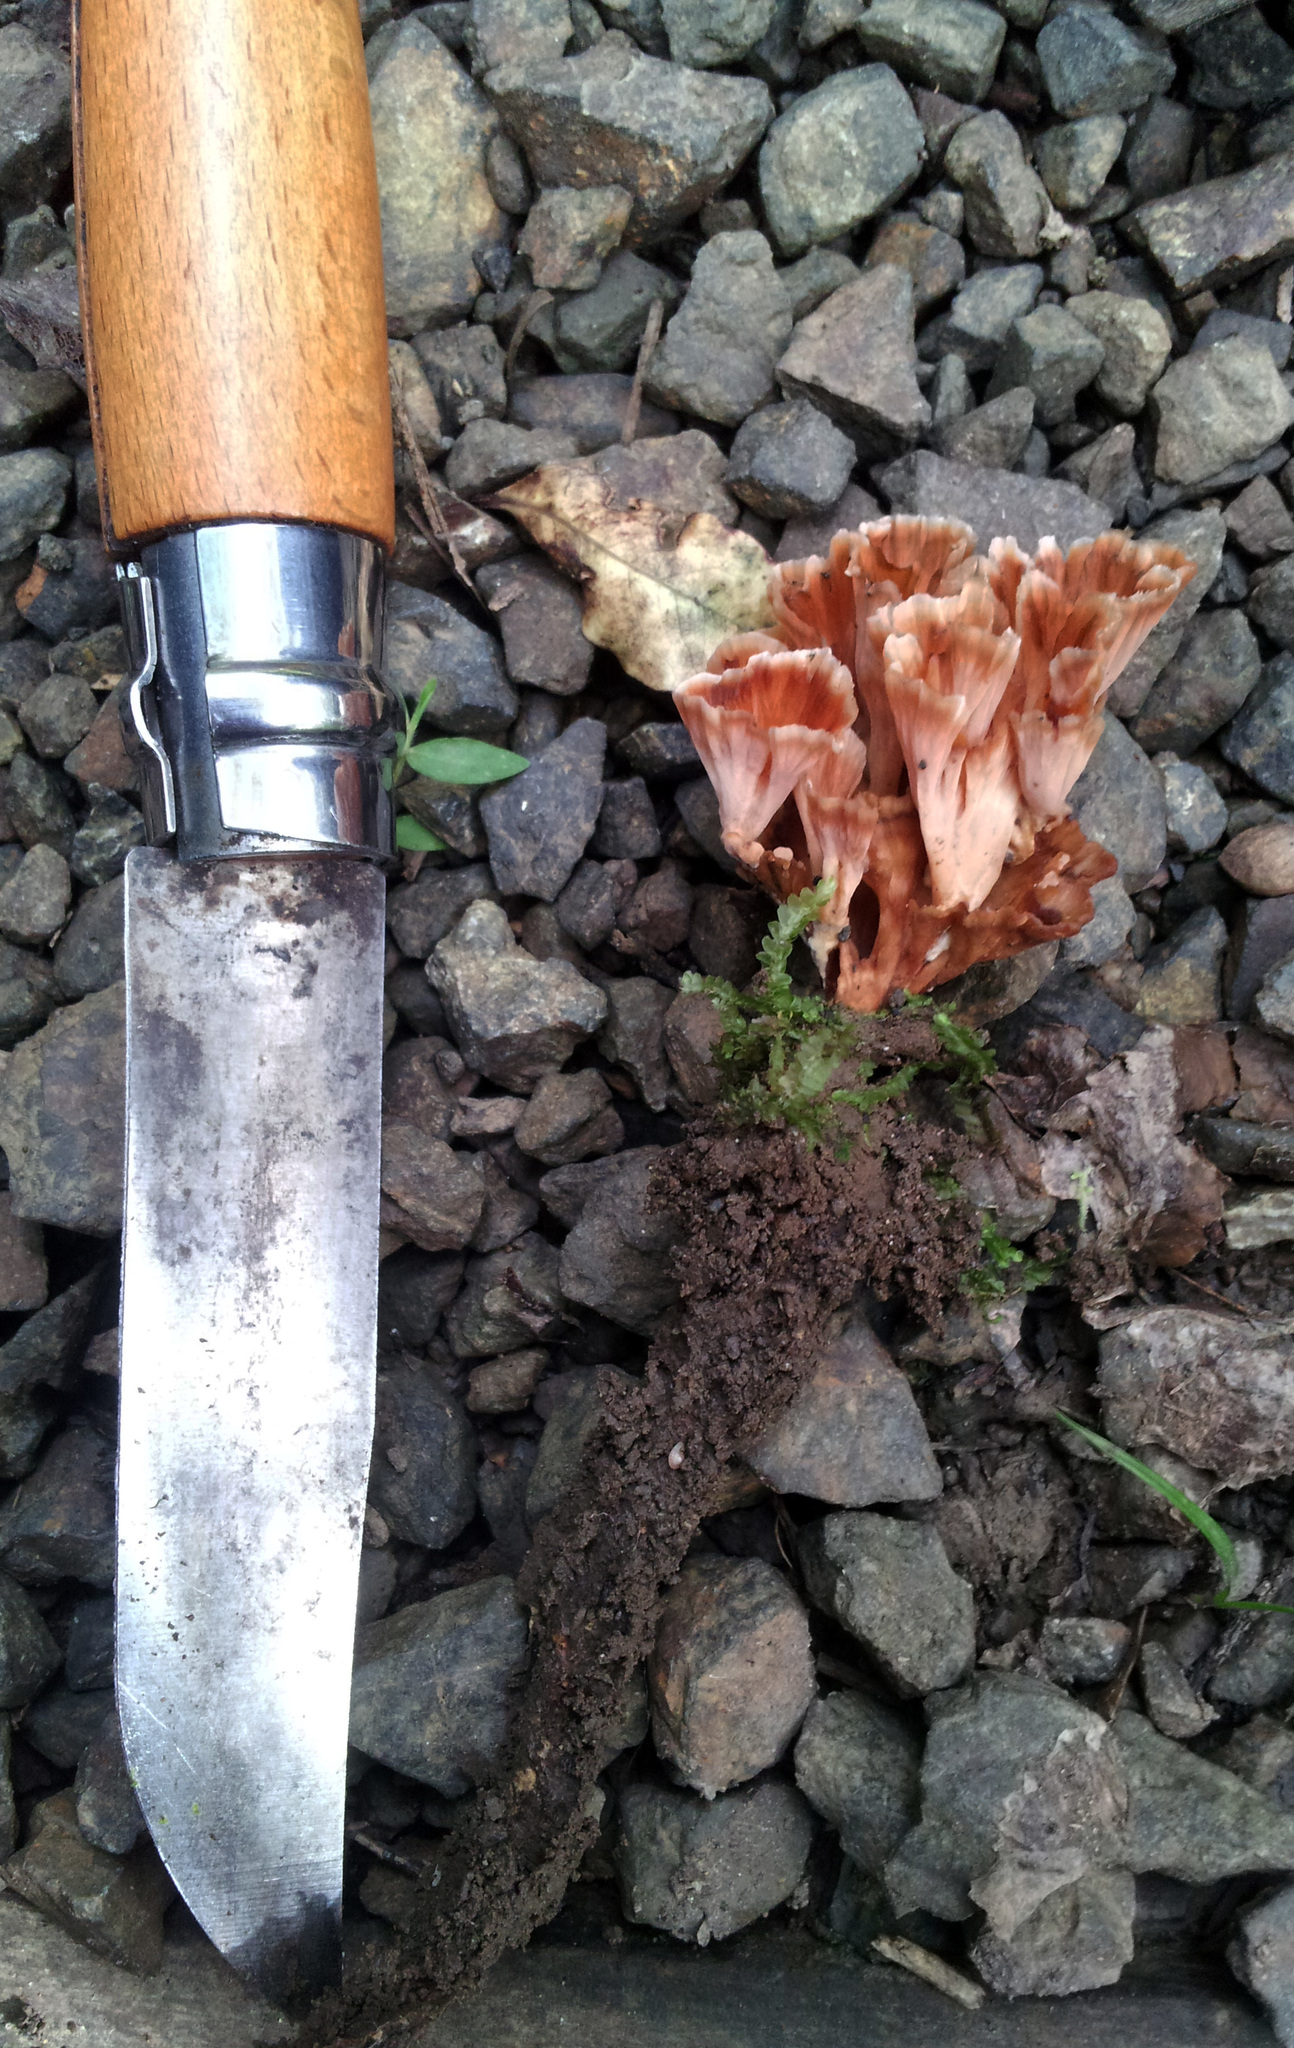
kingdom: Fungi
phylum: Basidiomycota
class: Agaricomycetes
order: Polyporales
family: Podoscyphaceae
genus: Podoscypha
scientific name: Podoscypha petalodes
